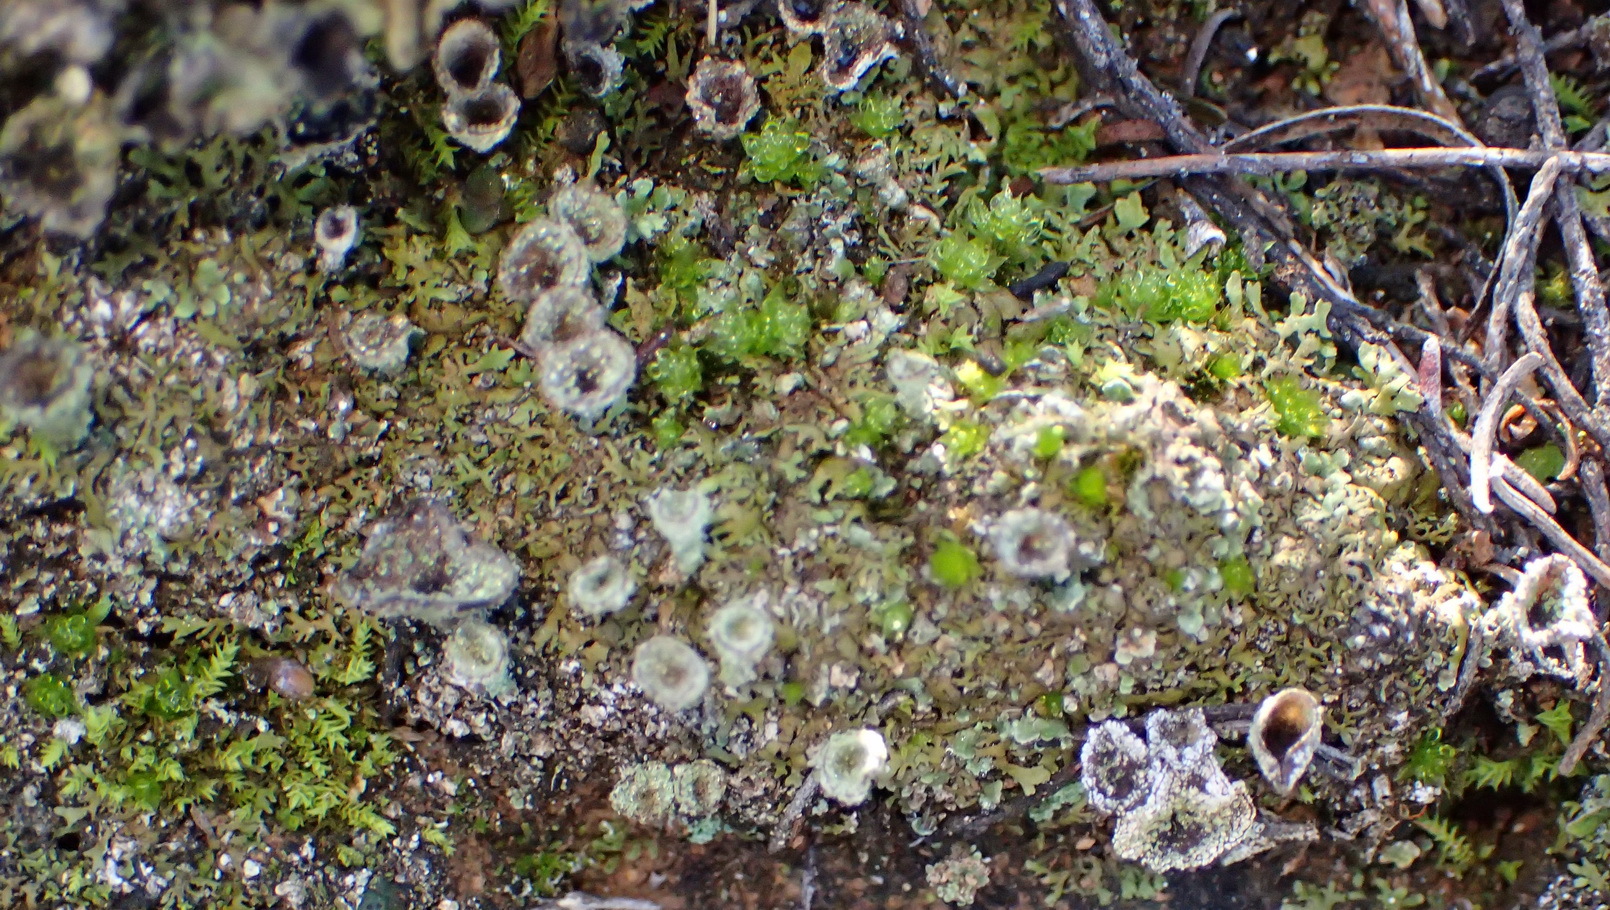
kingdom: Fungi
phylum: Ascomycota
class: Lecanoromycetes
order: Lecanorales
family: Cladoniaceae
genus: Cladonia
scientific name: Cladonia pyxidata
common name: Pebbled pixie cup
